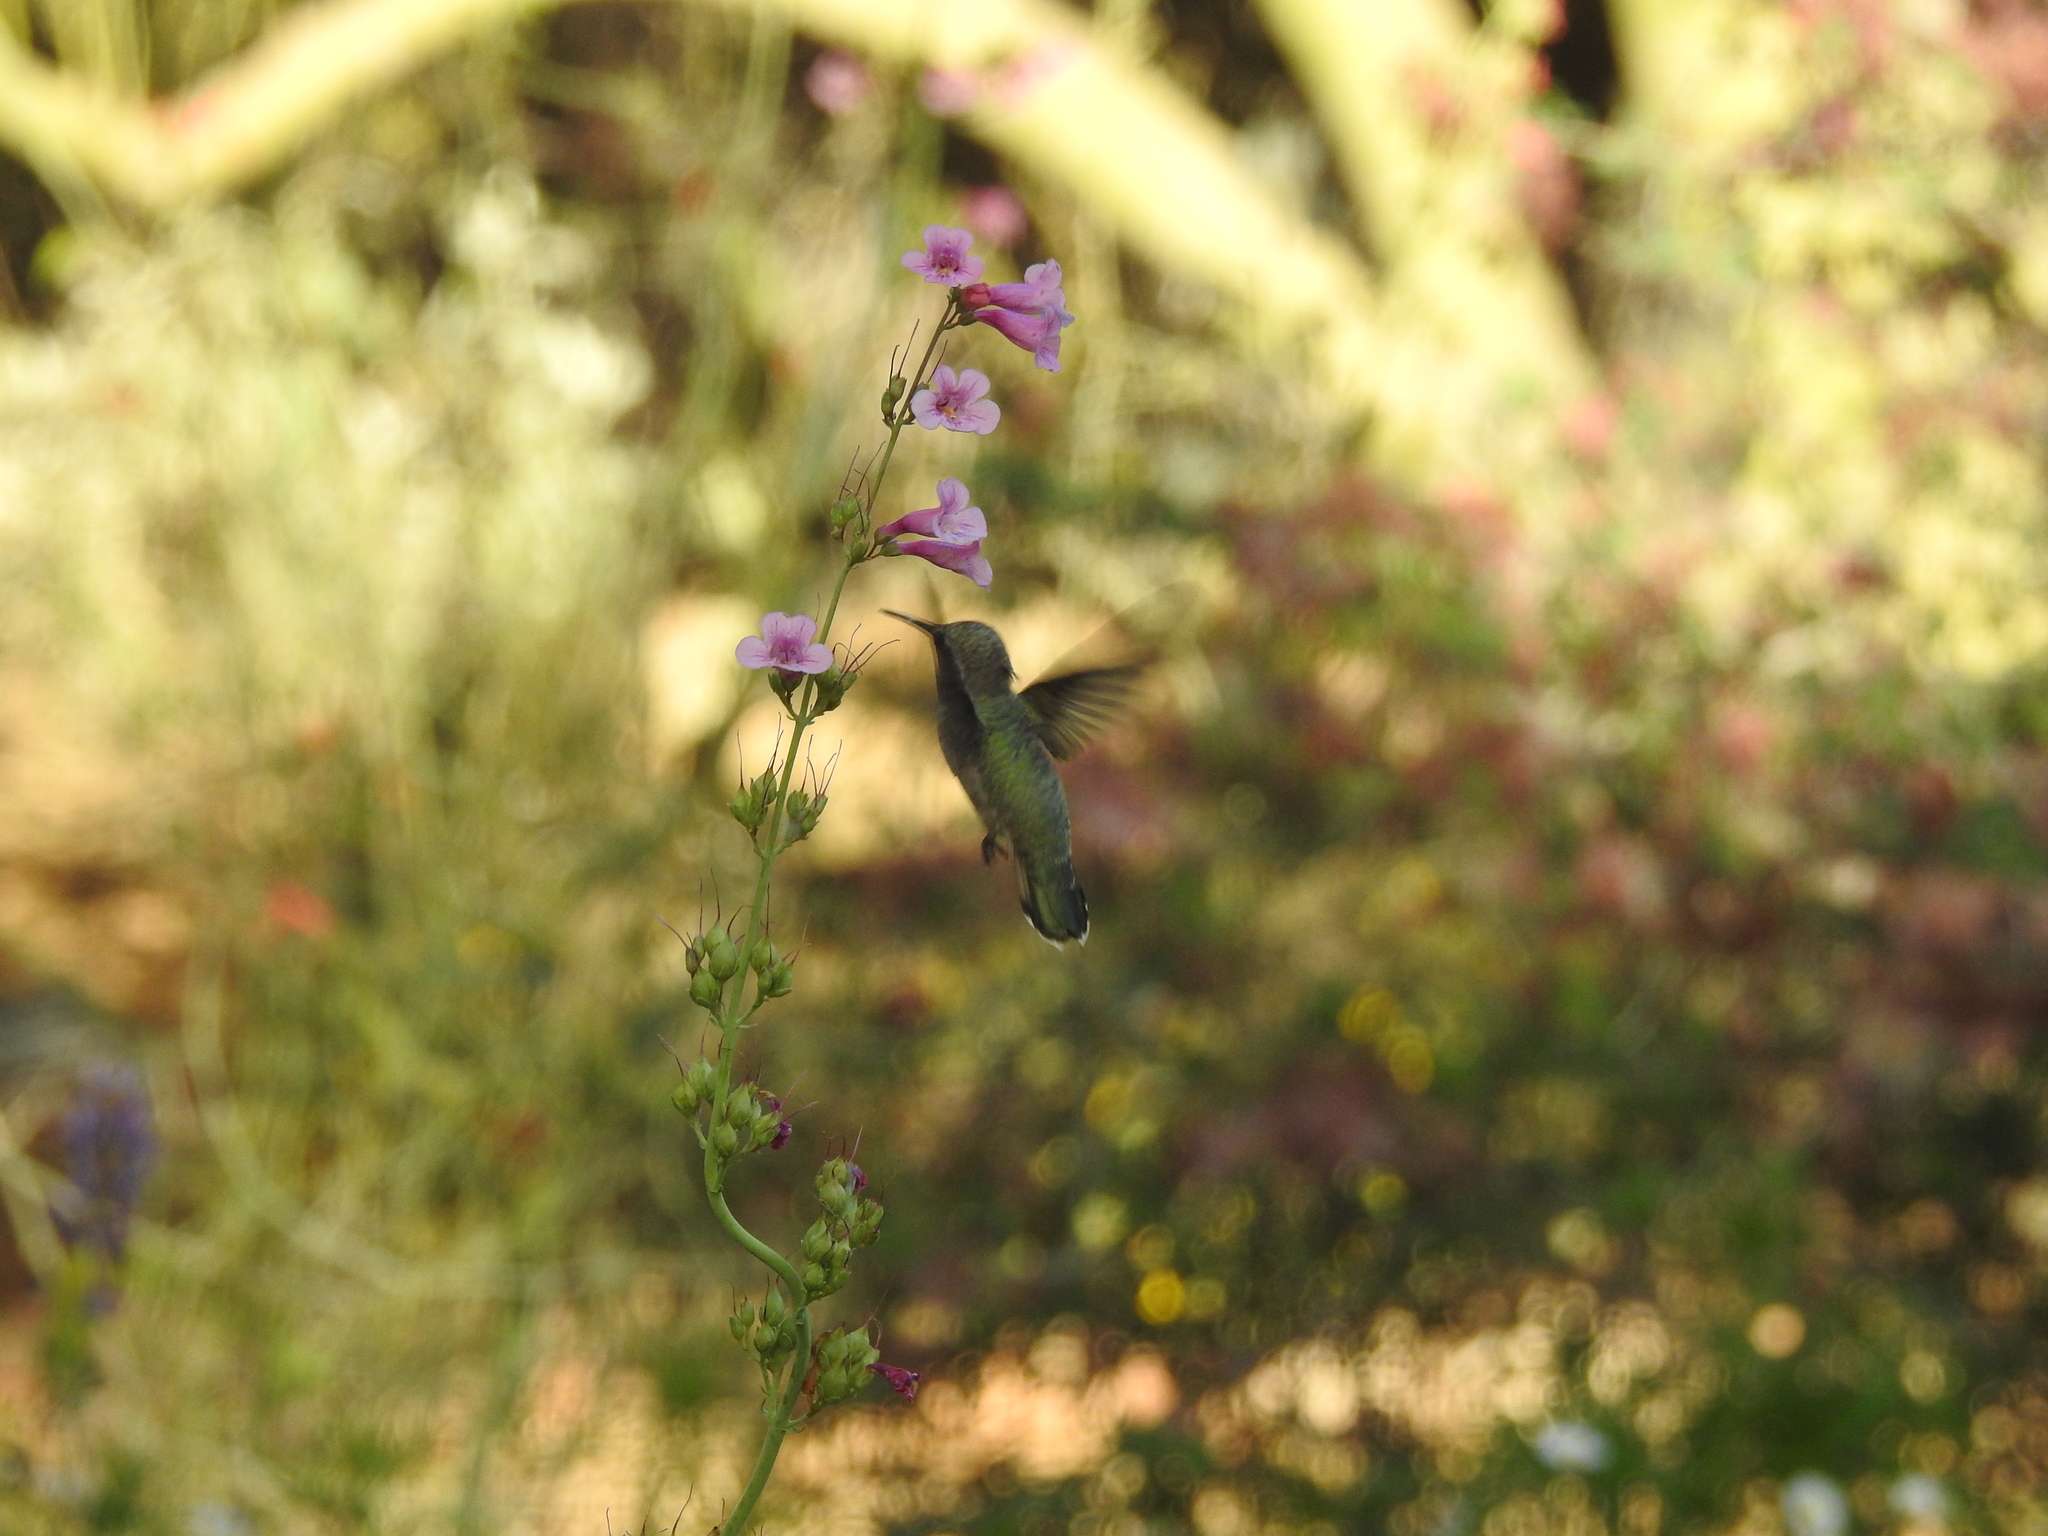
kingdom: Animalia
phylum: Chordata
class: Aves
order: Apodiformes
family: Trochilidae
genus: Calypte
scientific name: Calypte costae
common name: Costa's hummingbird
